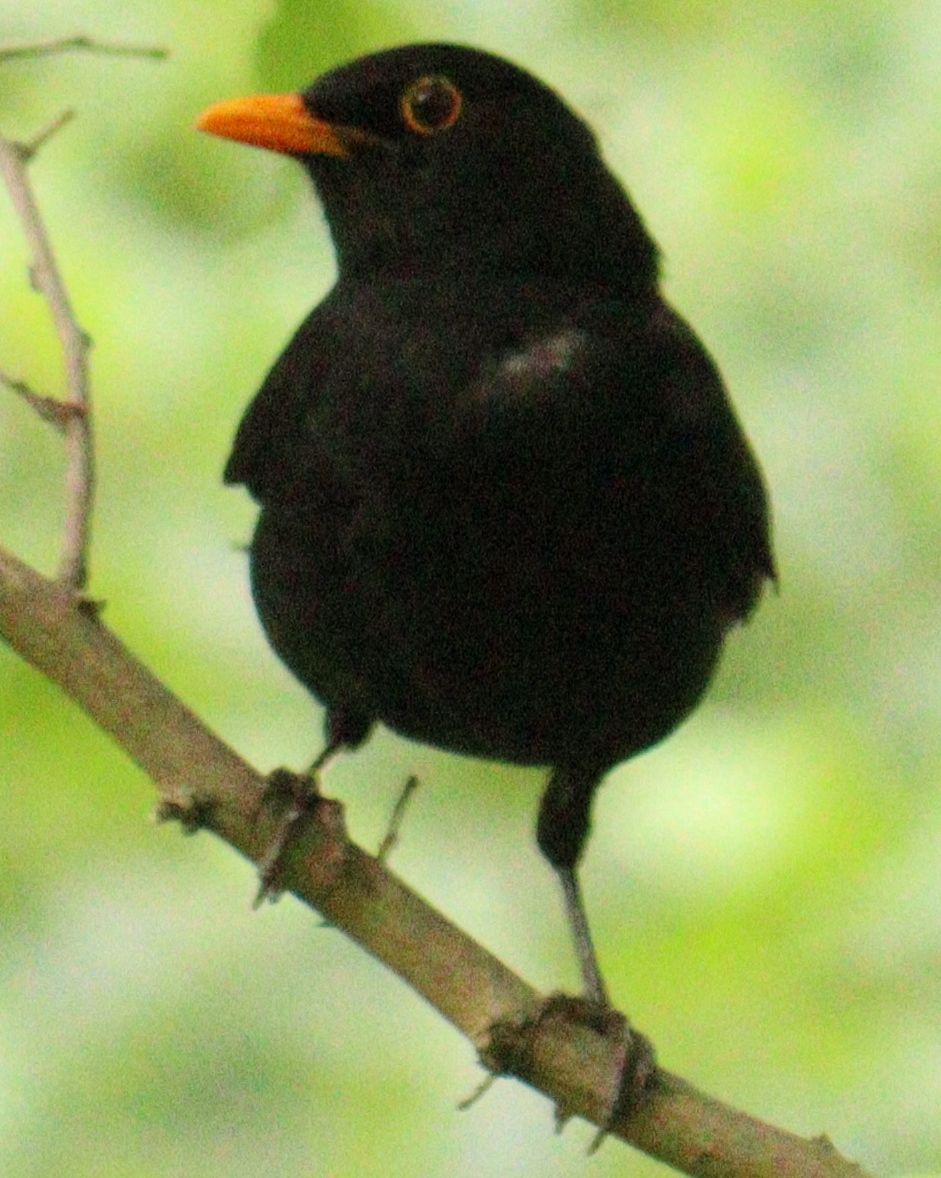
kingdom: Animalia
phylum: Chordata
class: Aves
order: Passeriformes
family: Turdidae
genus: Turdus
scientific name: Turdus merula
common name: Common blackbird
